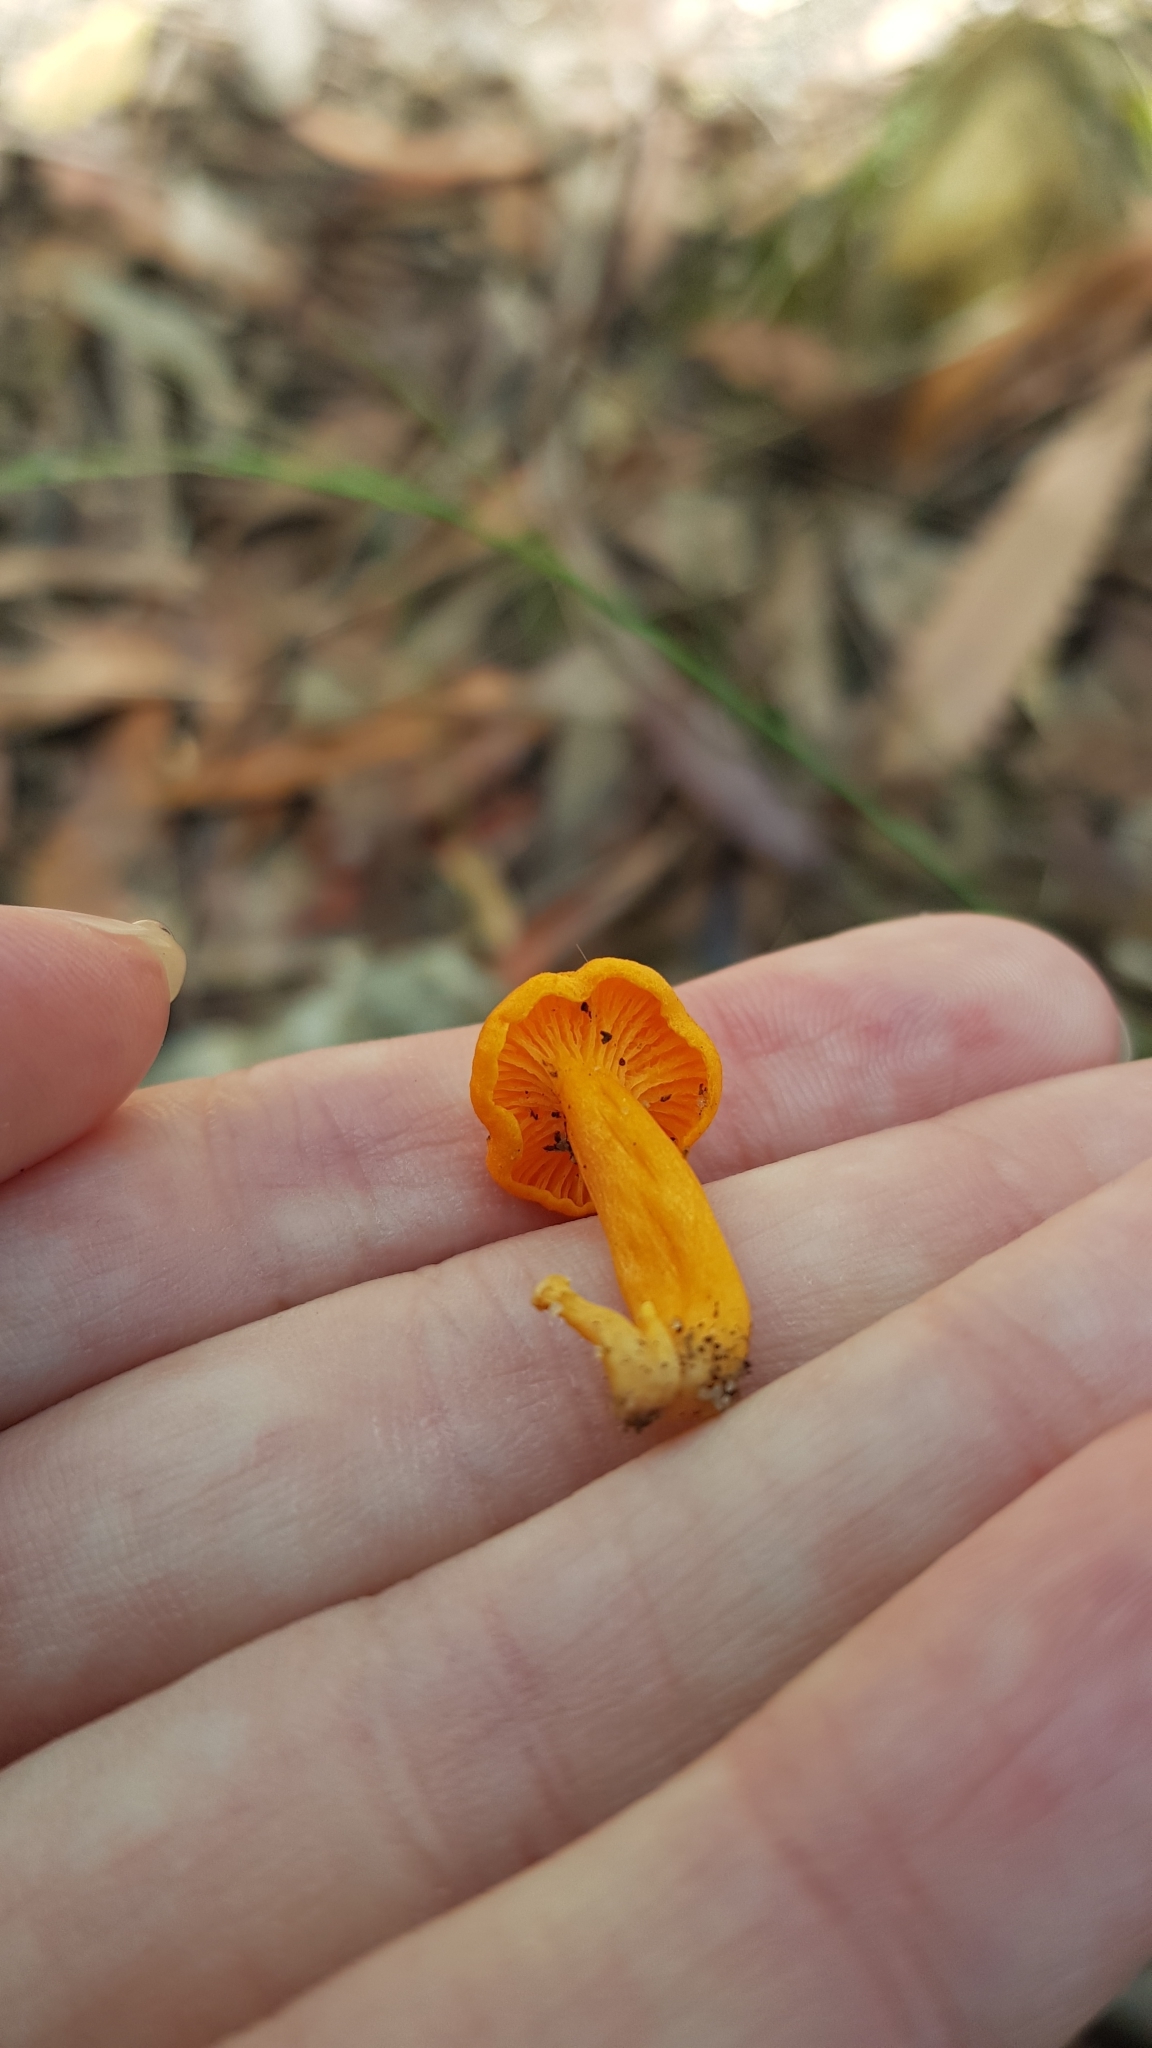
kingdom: Fungi
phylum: Basidiomycota
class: Agaricomycetes
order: Cantharellales
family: Hydnaceae
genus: Cantharellus
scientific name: Cantharellus
